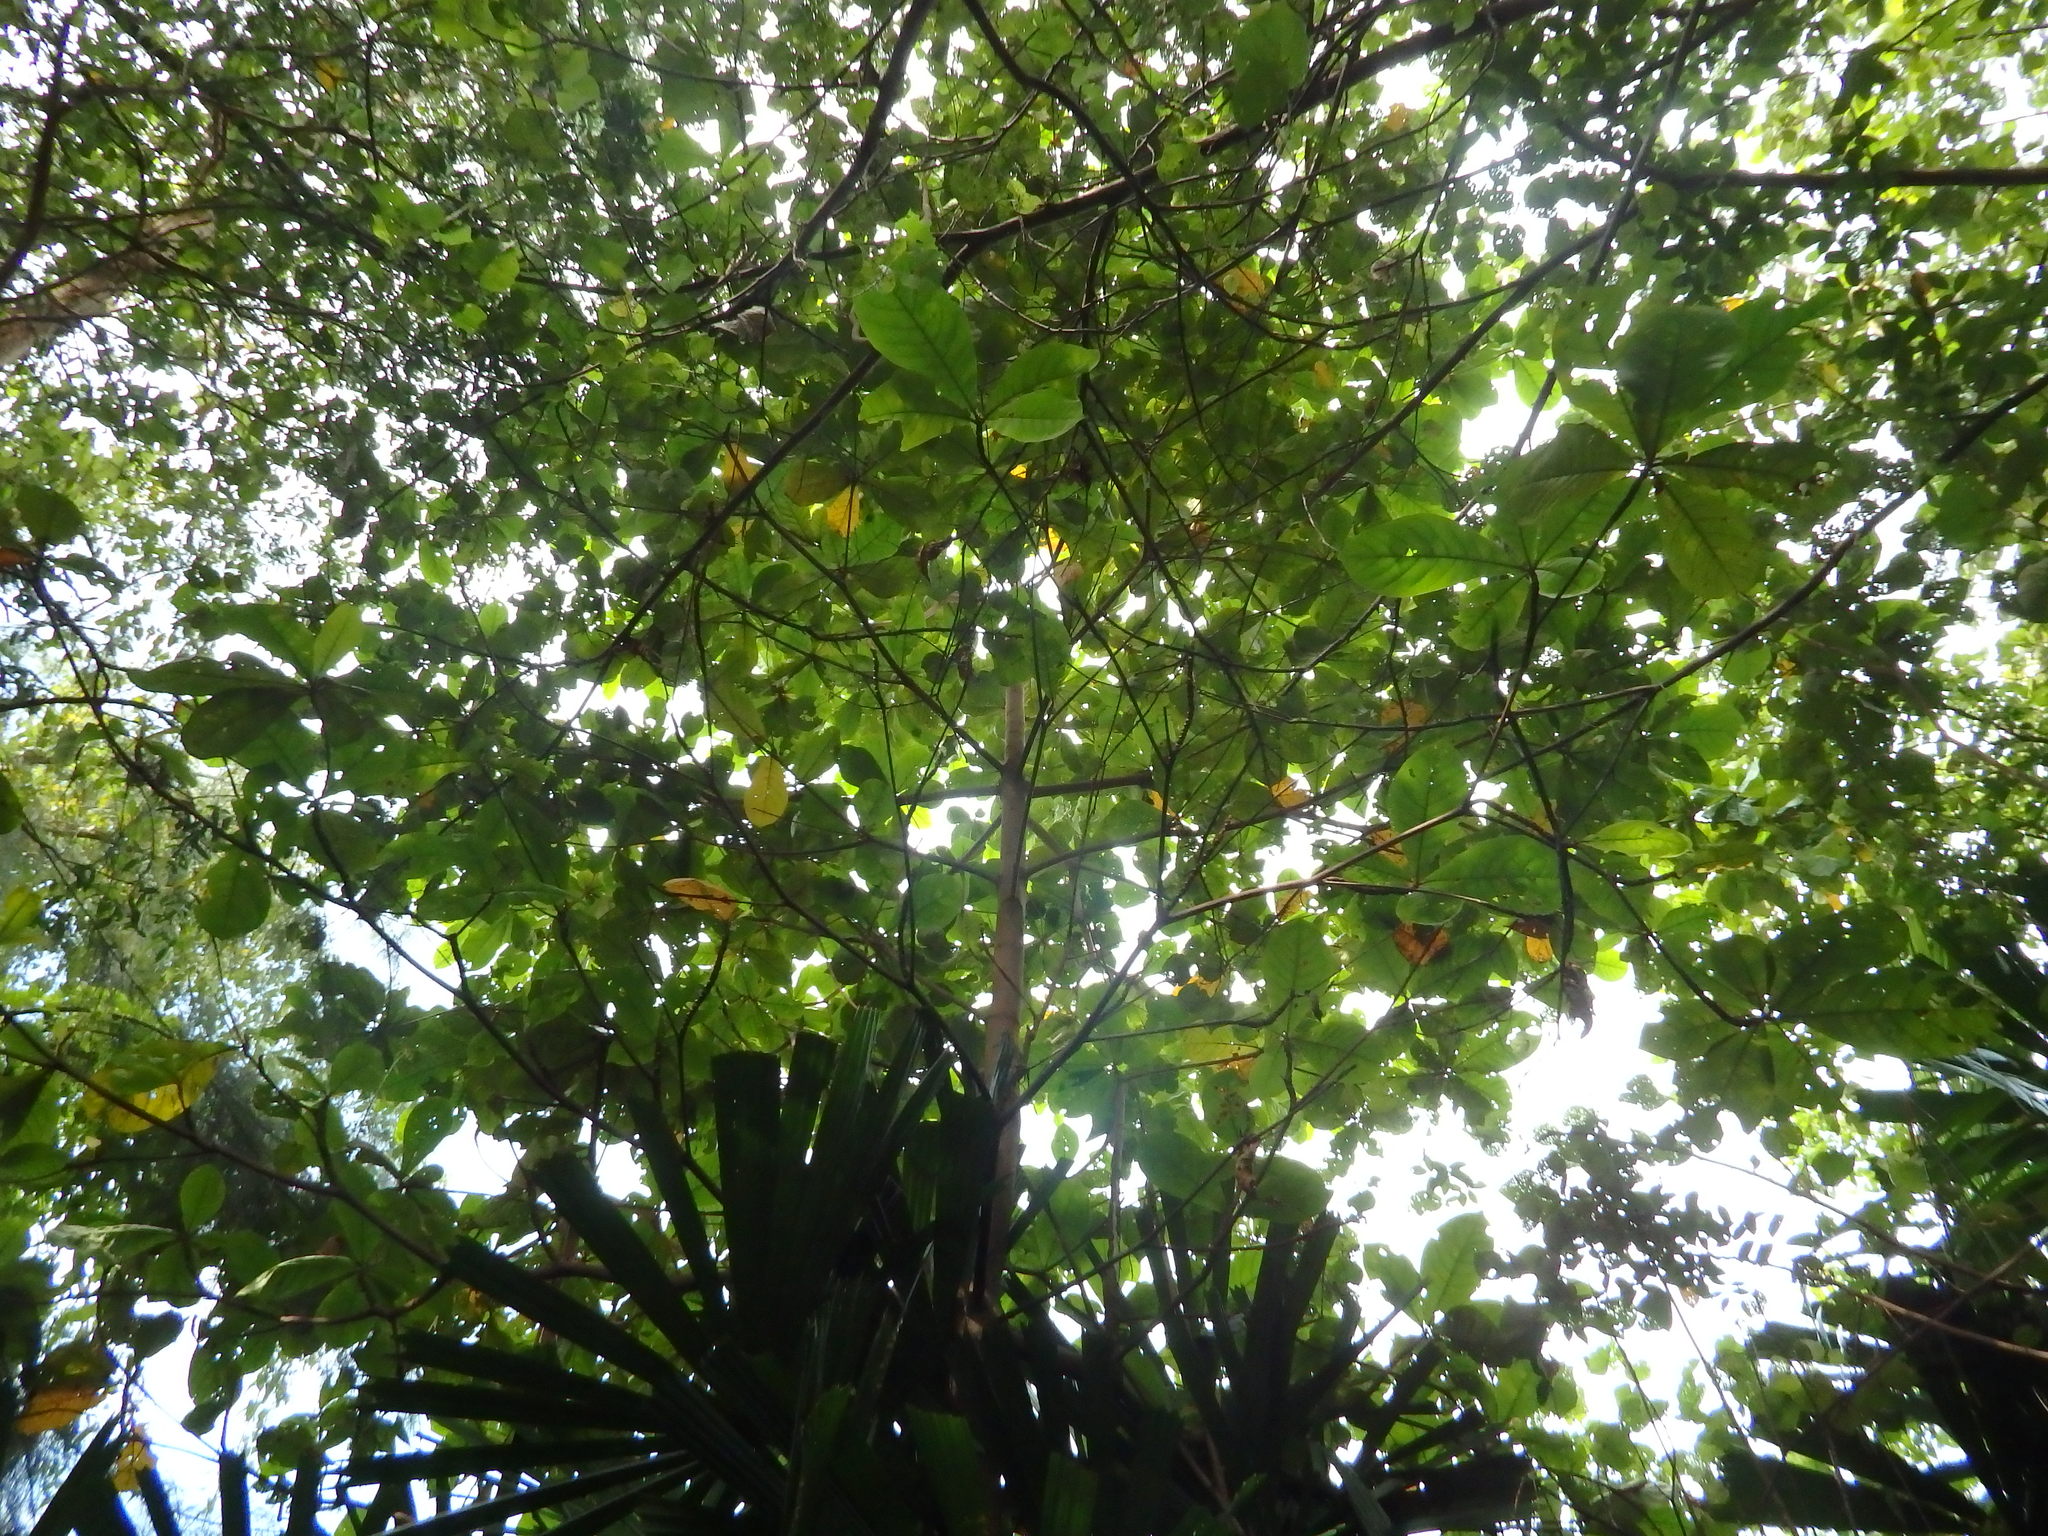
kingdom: Plantae
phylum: Tracheophyta
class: Magnoliopsida
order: Myrtales
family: Combretaceae
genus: Terminalia
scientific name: Terminalia catappa
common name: Tropical almond
